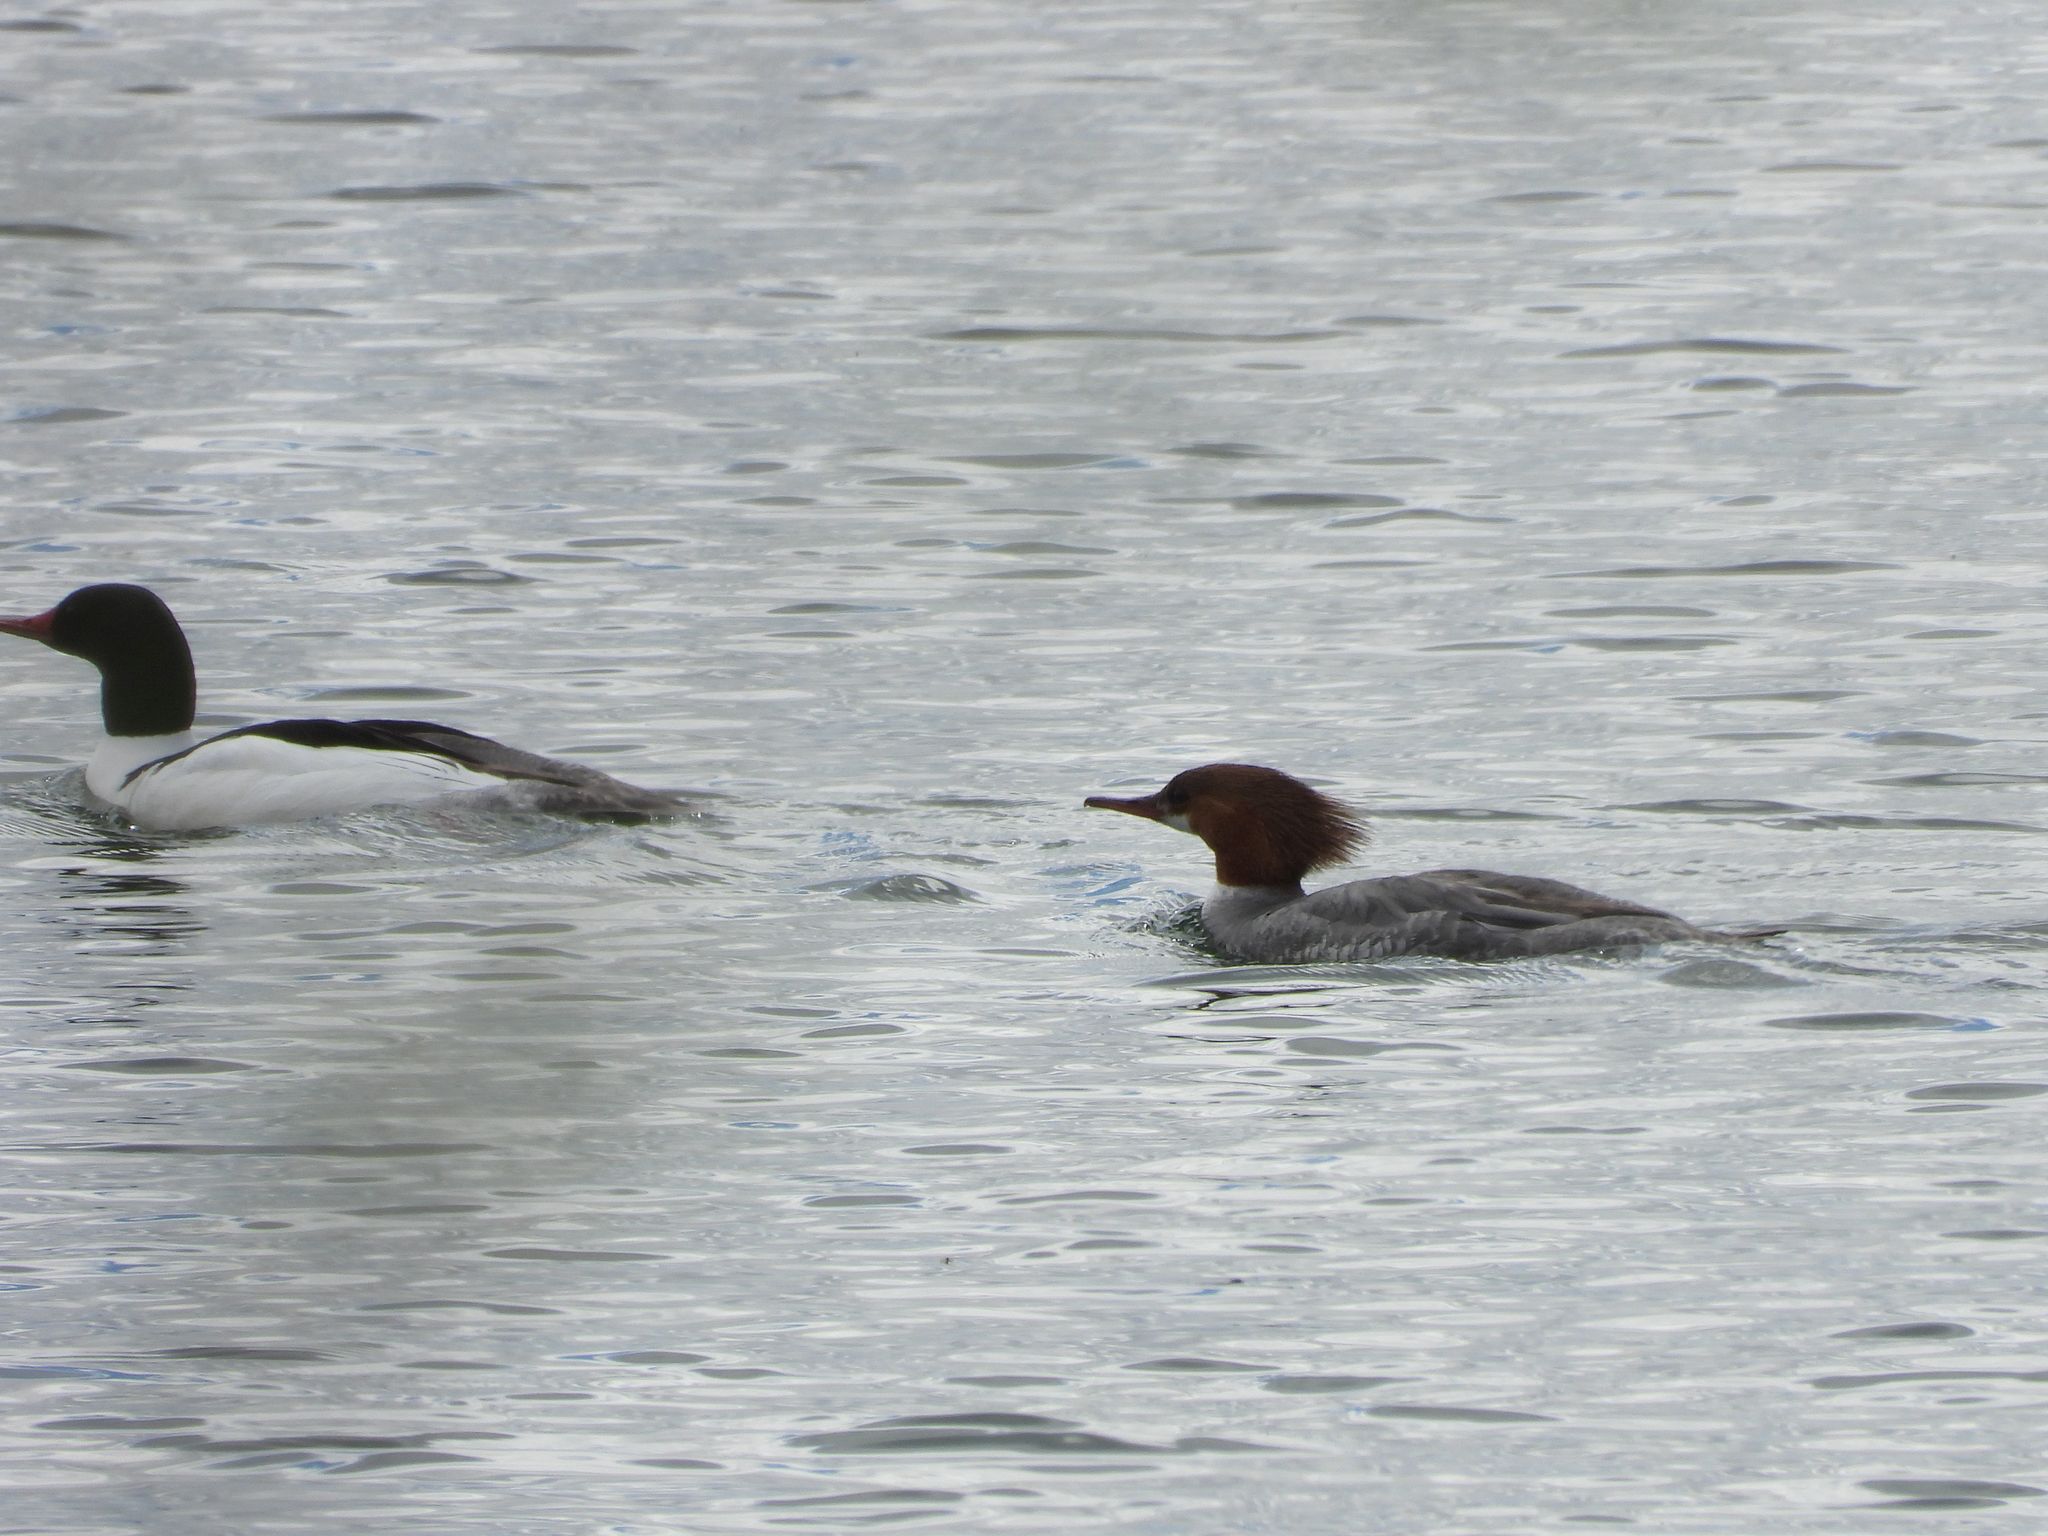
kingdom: Animalia
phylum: Chordata
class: Aves
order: Anseriformes
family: Anatidae
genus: Mergus
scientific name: Mergus merganser
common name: Common merganser
